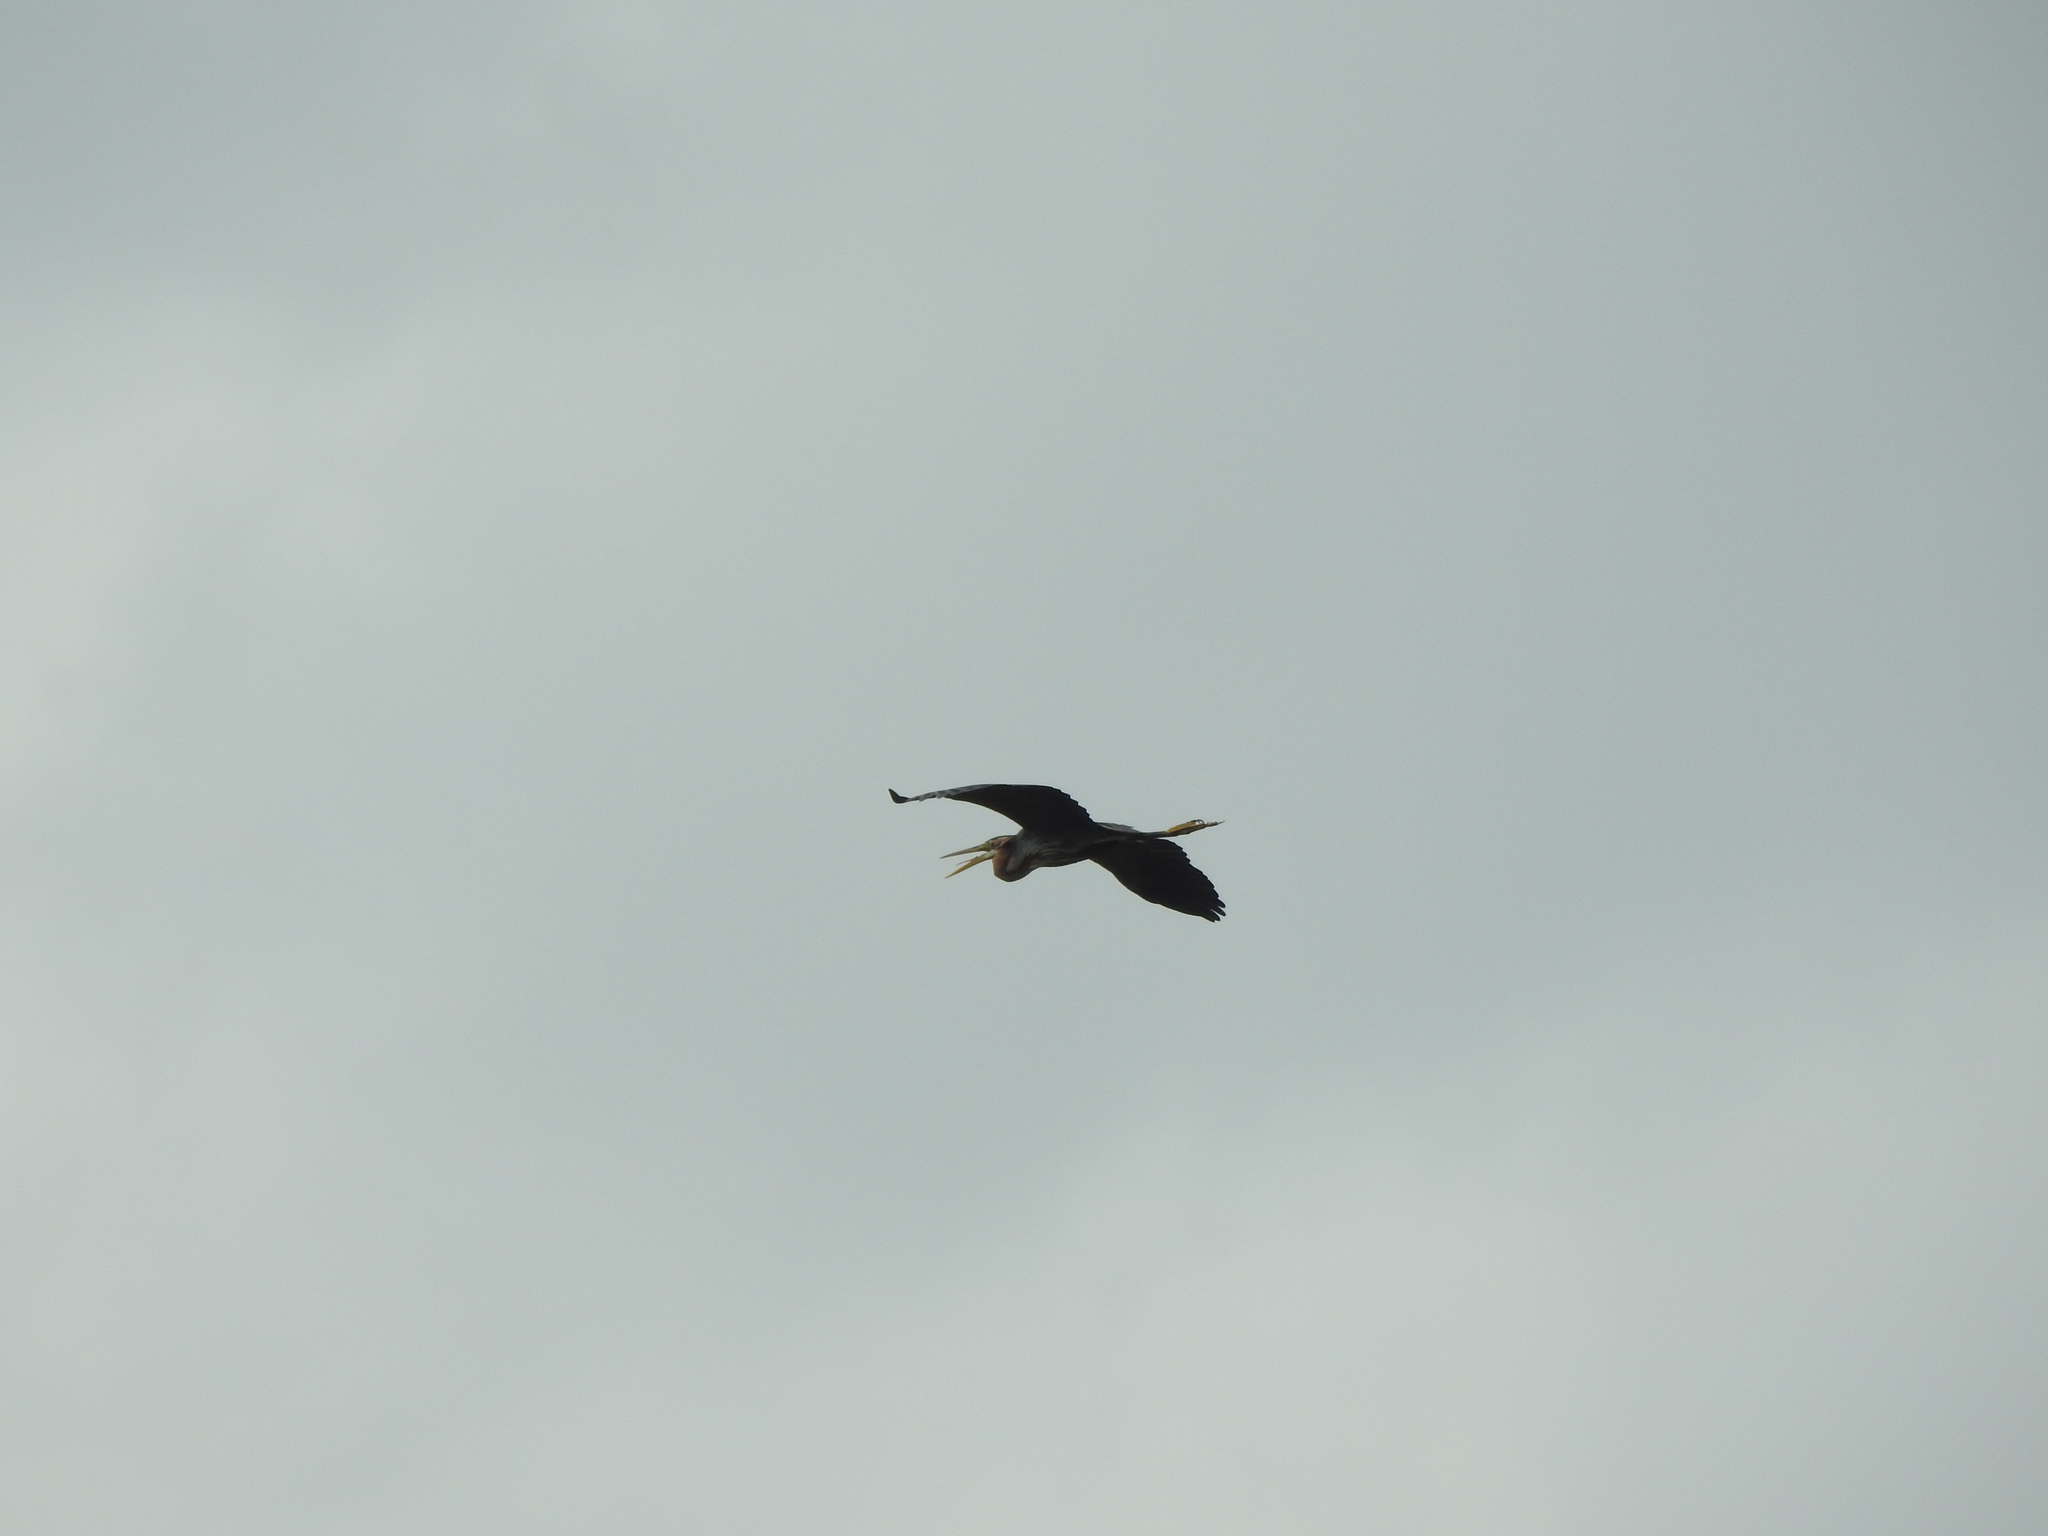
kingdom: Animalia
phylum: Chordata
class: Aves
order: Pelecaniformes
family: Ardeidae
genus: Ardea
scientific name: Ardea purpurea
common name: Purple heron
